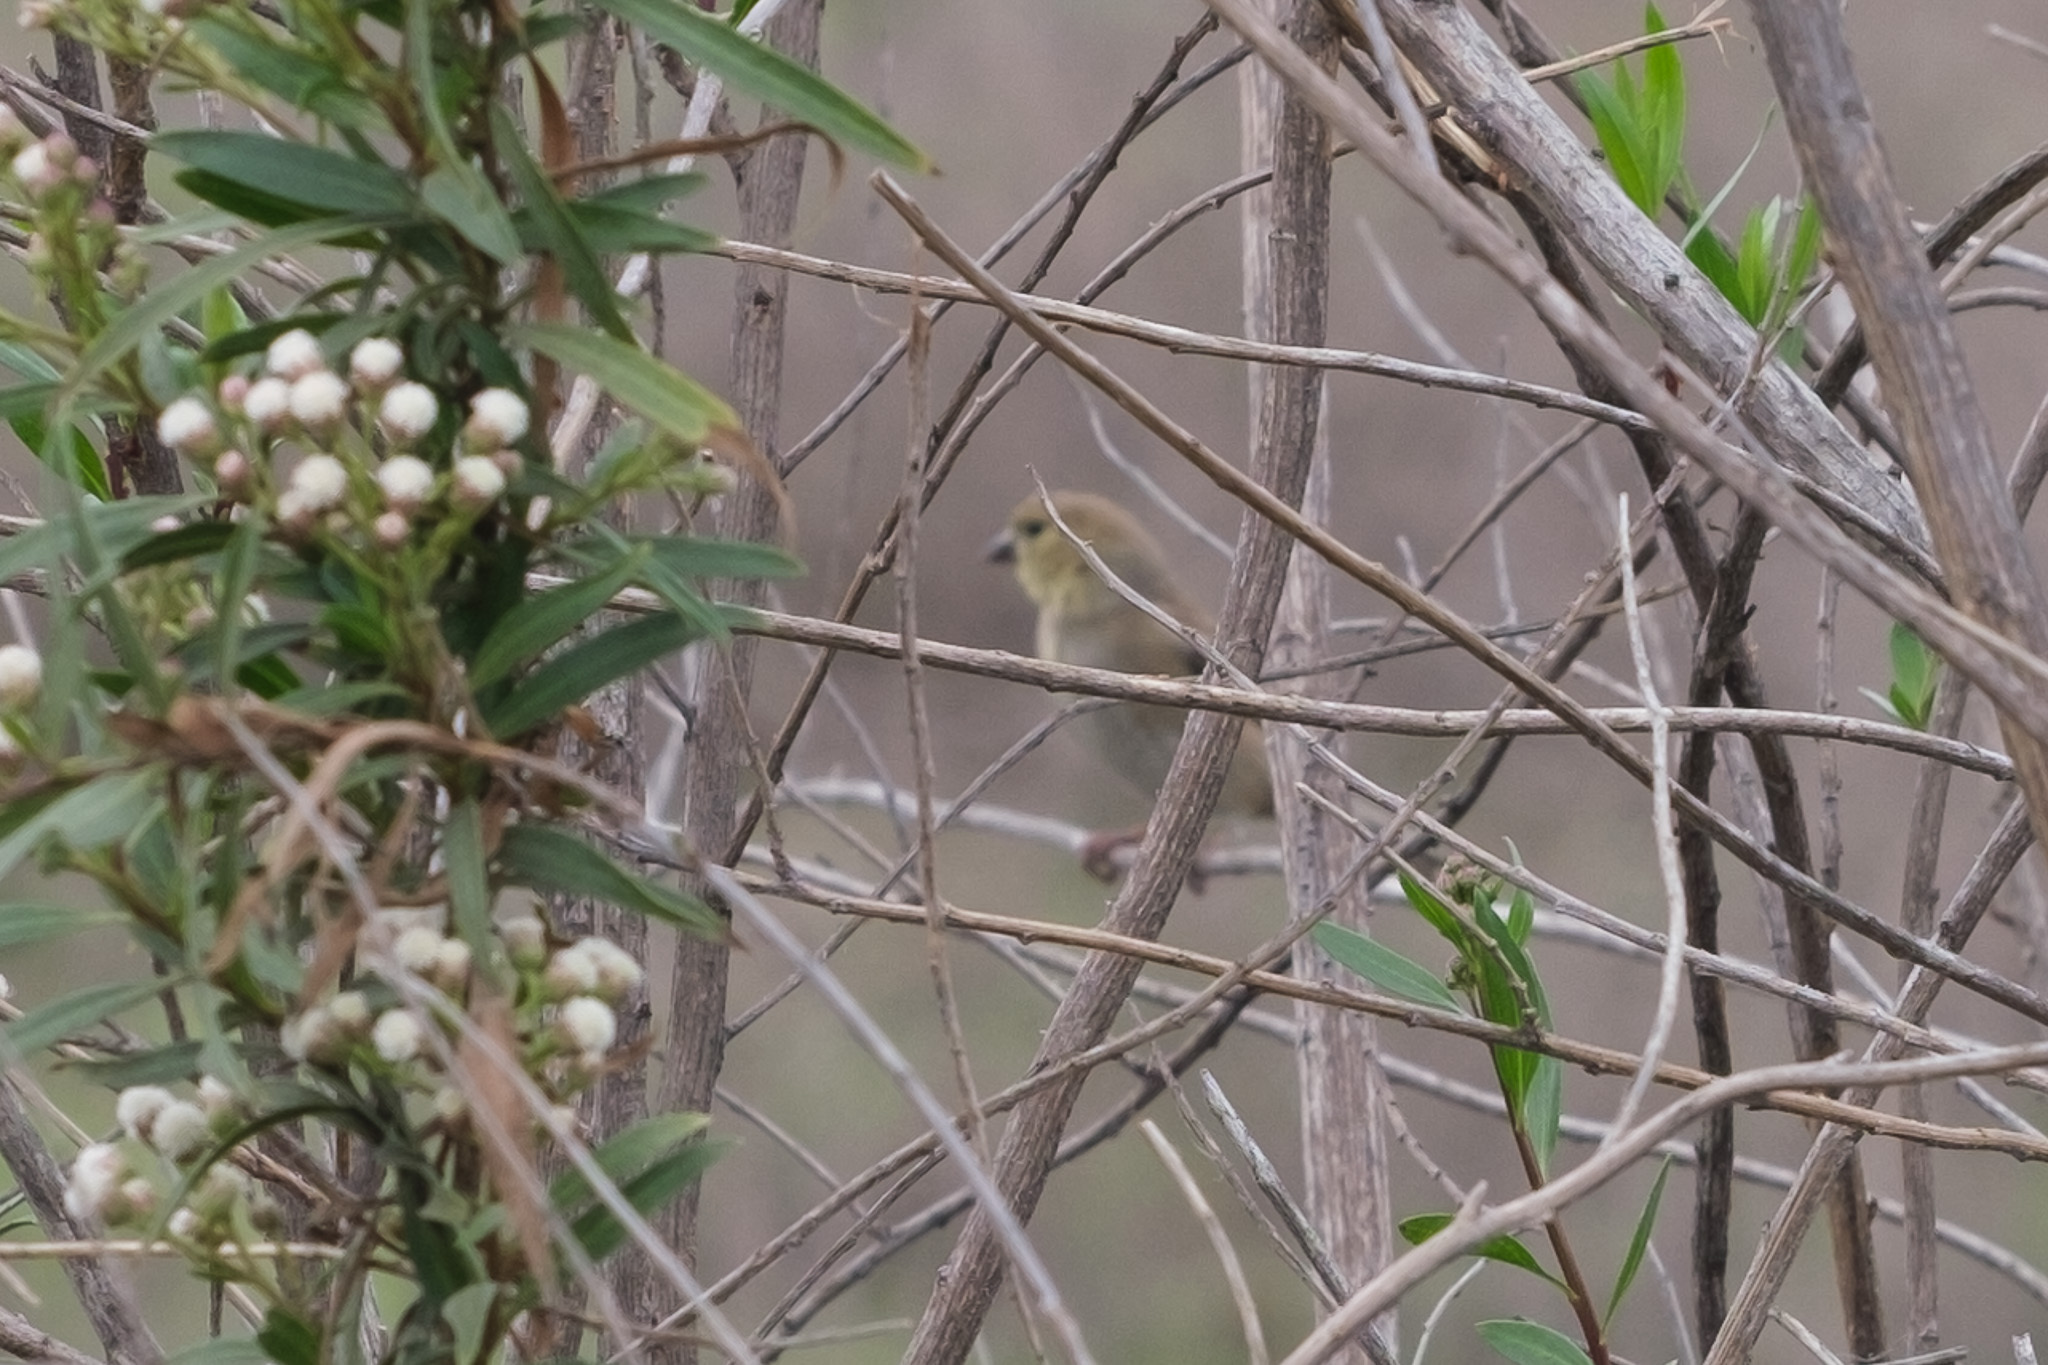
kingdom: Animalia
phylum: Chordata
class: Aves
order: Passeriformes
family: Fringillidae
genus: Spinus
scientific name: Spinus tristis
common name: American goldfinch
